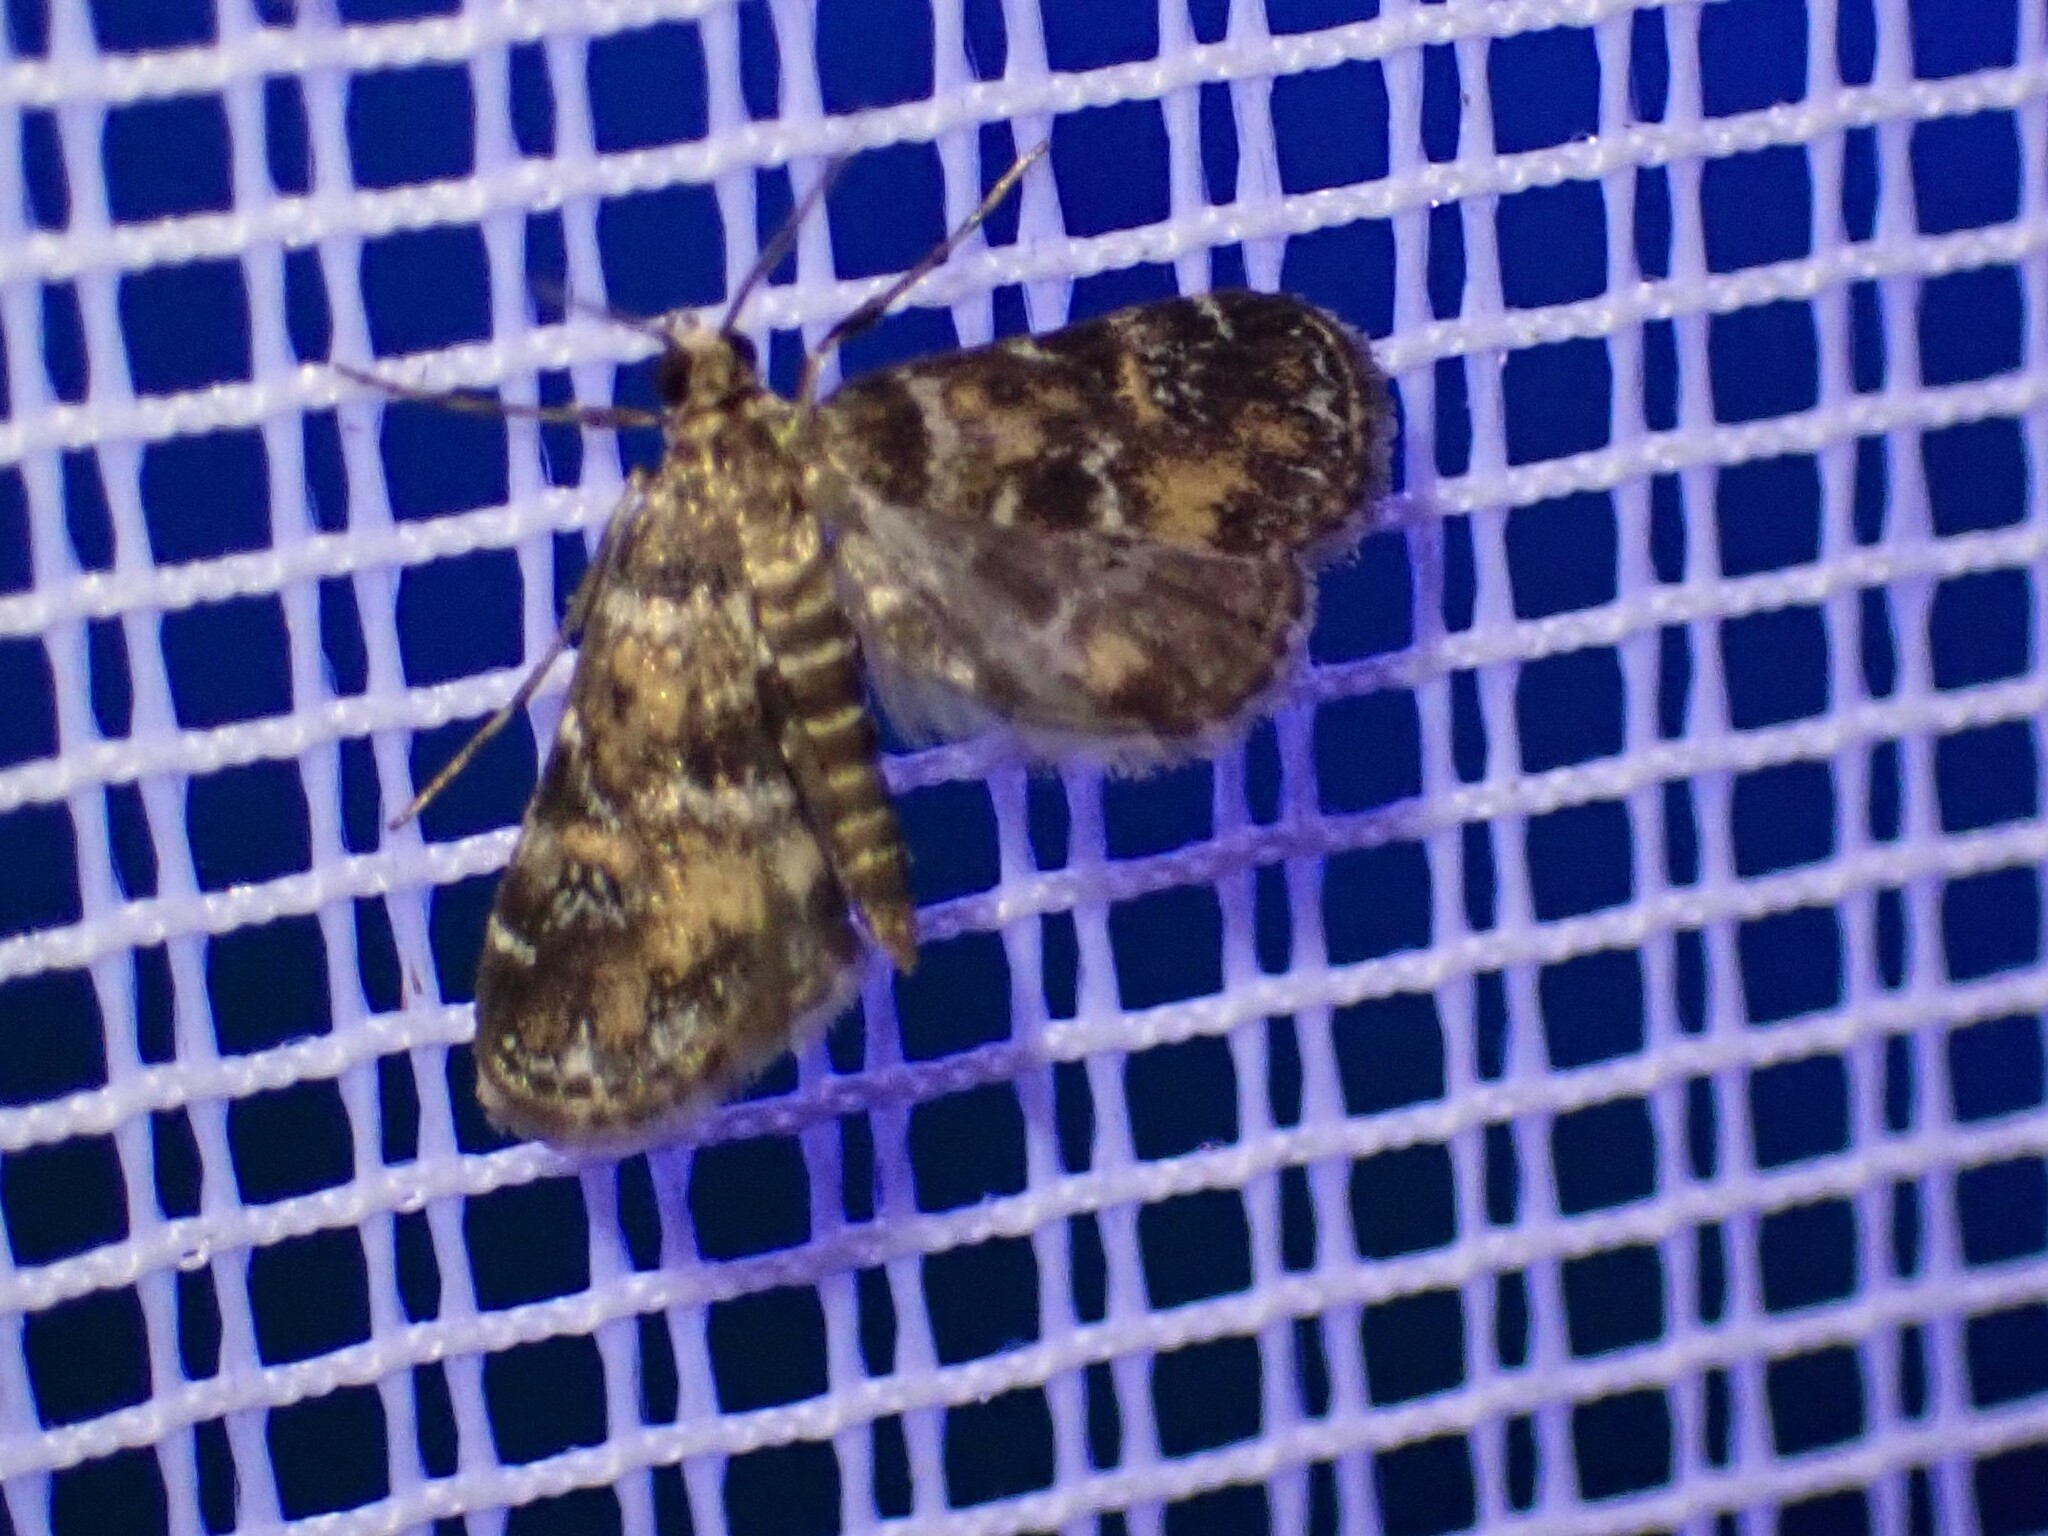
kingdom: Animalia
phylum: Arthropoda
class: Insecta
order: Lepidoptera
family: Crambidae
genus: Elophila
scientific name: Elophila obliteralis
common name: Waterlily leafcutter moth
